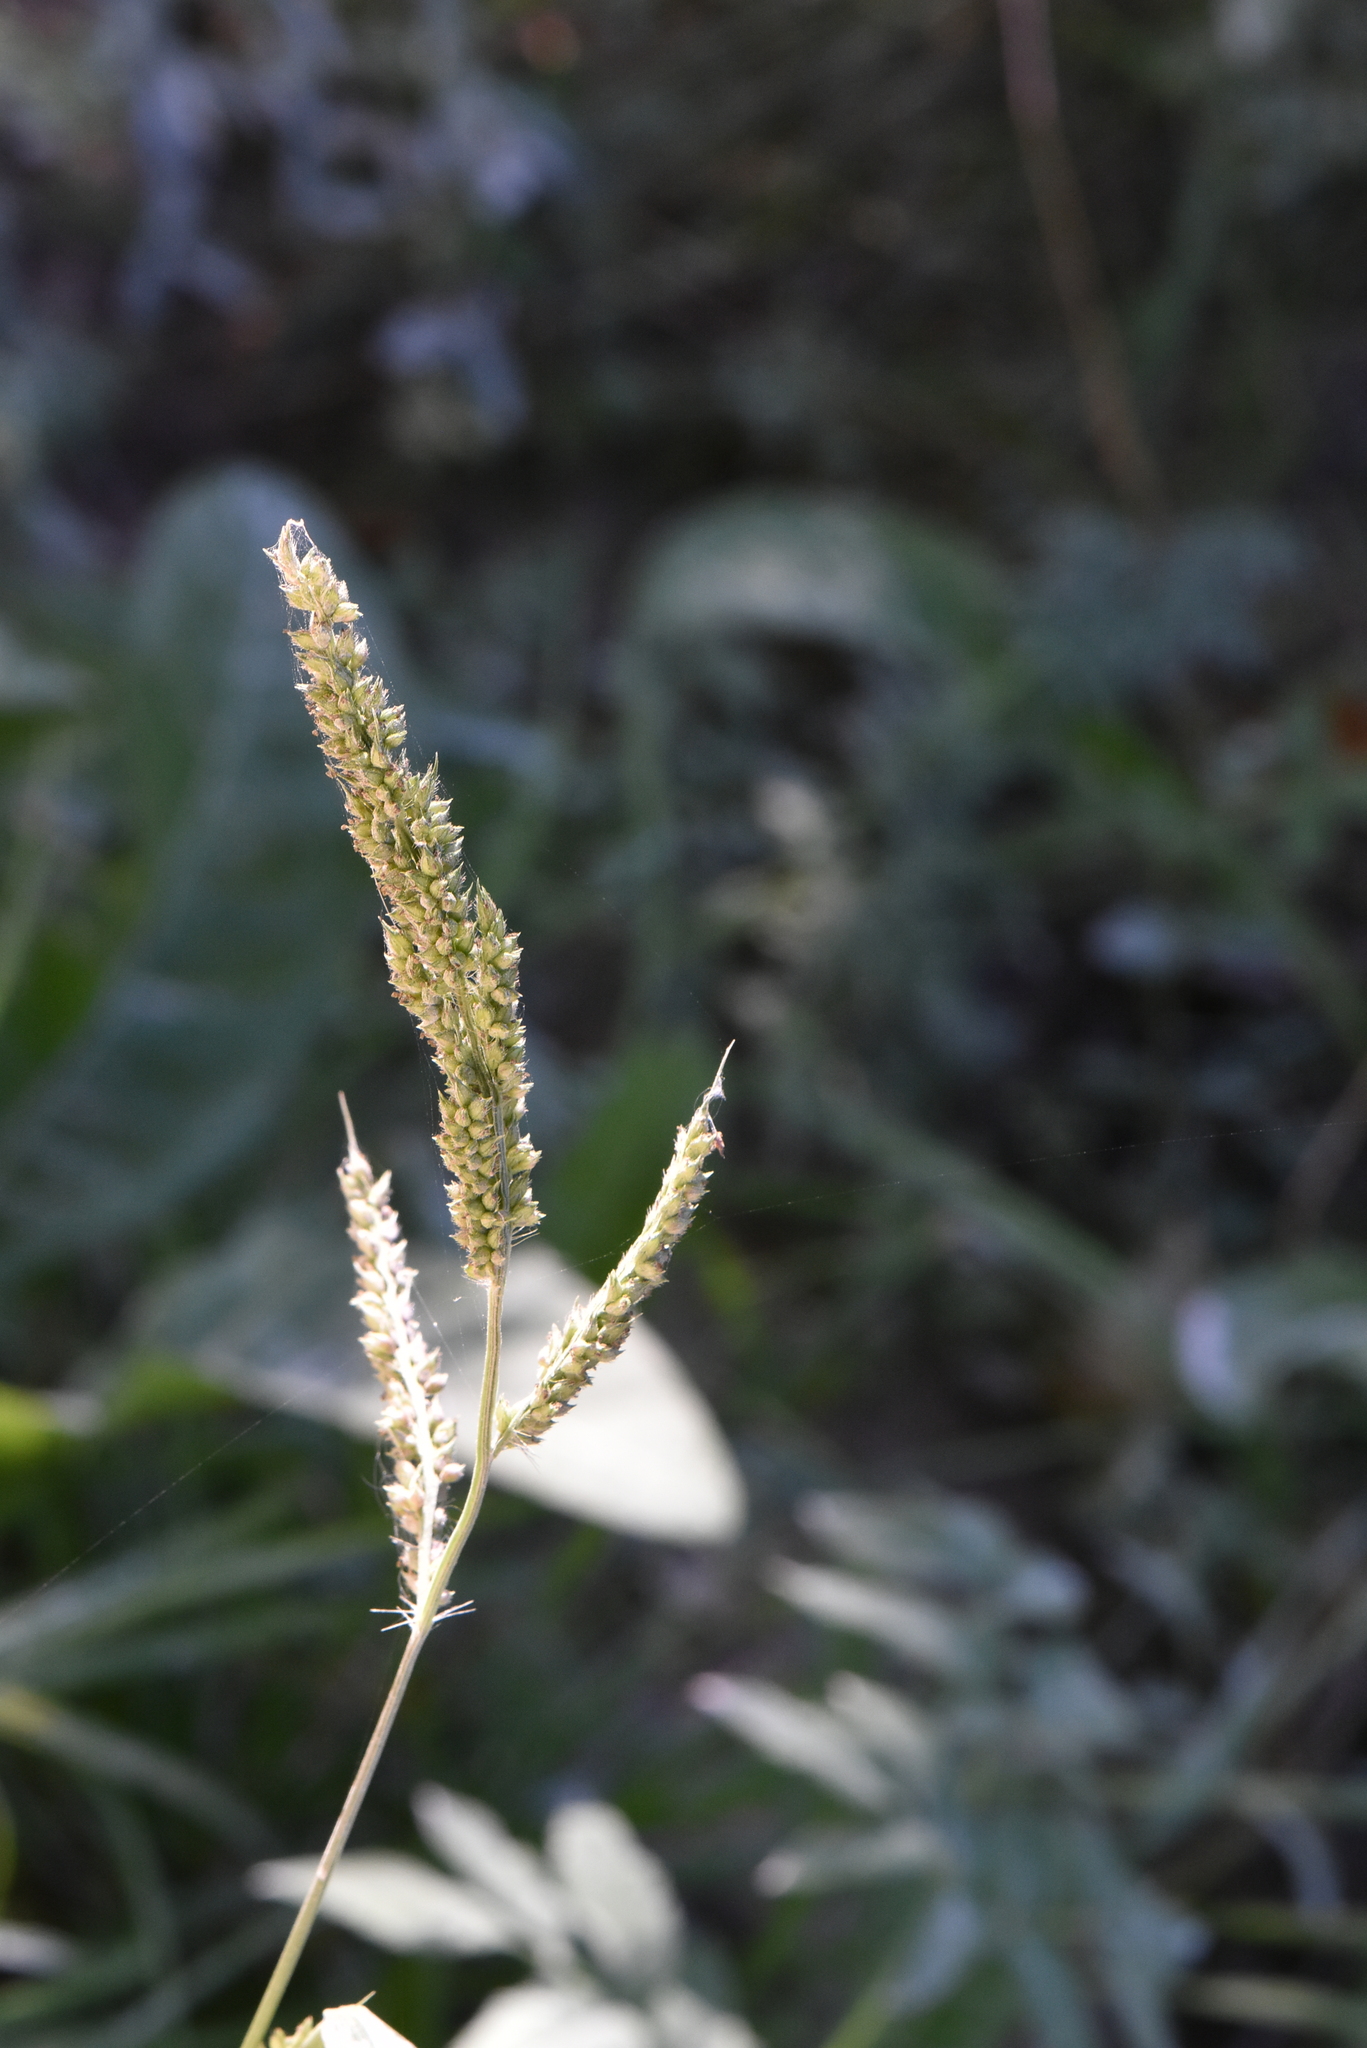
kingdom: Plantae
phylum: Tracheophyta
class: Liliopsida
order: Poales
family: Poaceae
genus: Echinochloa
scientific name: Echinochloa crus-galli
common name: Cockspur
